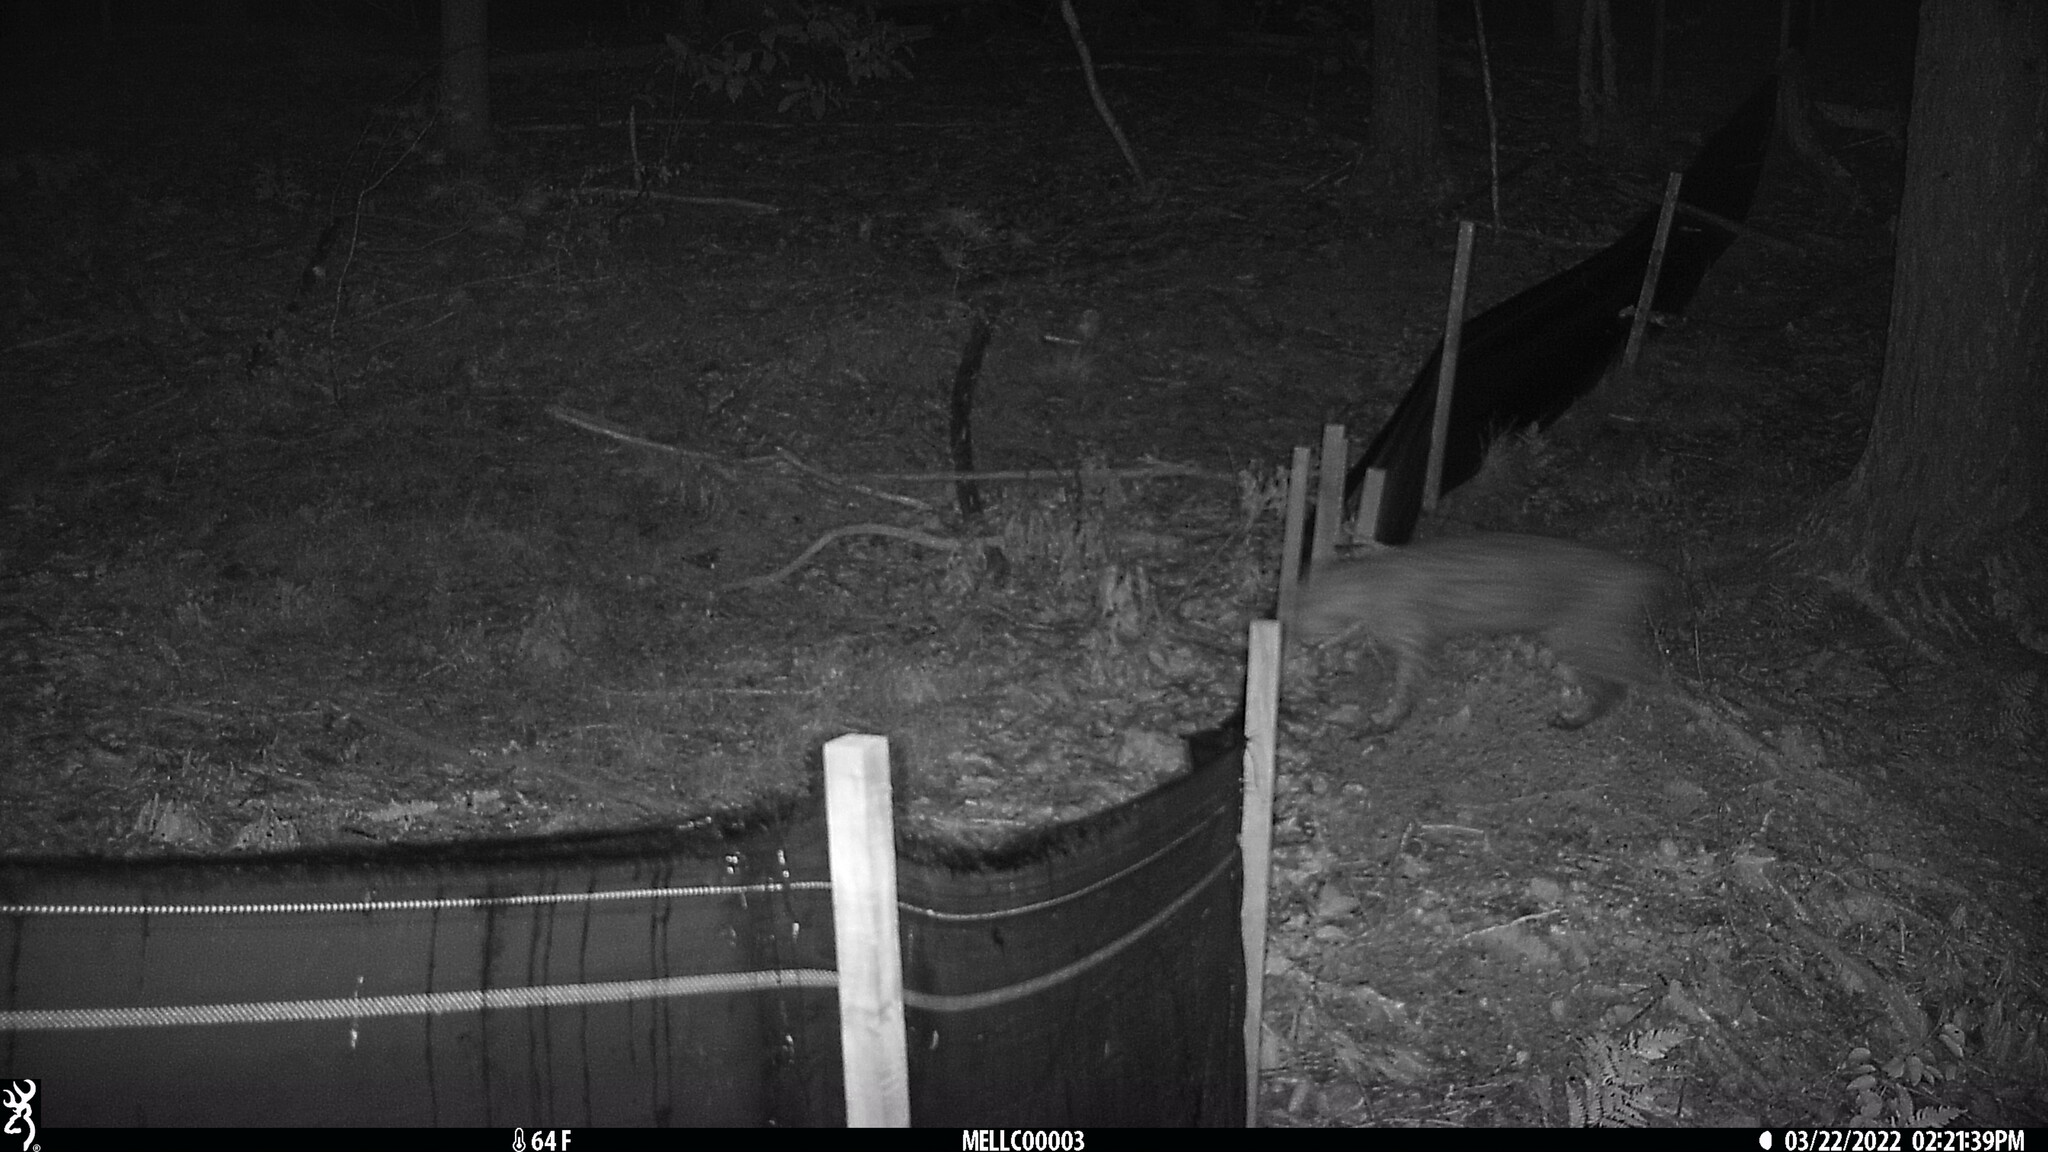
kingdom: Animalia
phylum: Chordata
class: Mammalia
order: Carnivora
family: Felidae
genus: Lynx
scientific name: Lynx rufus
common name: Bobcat
